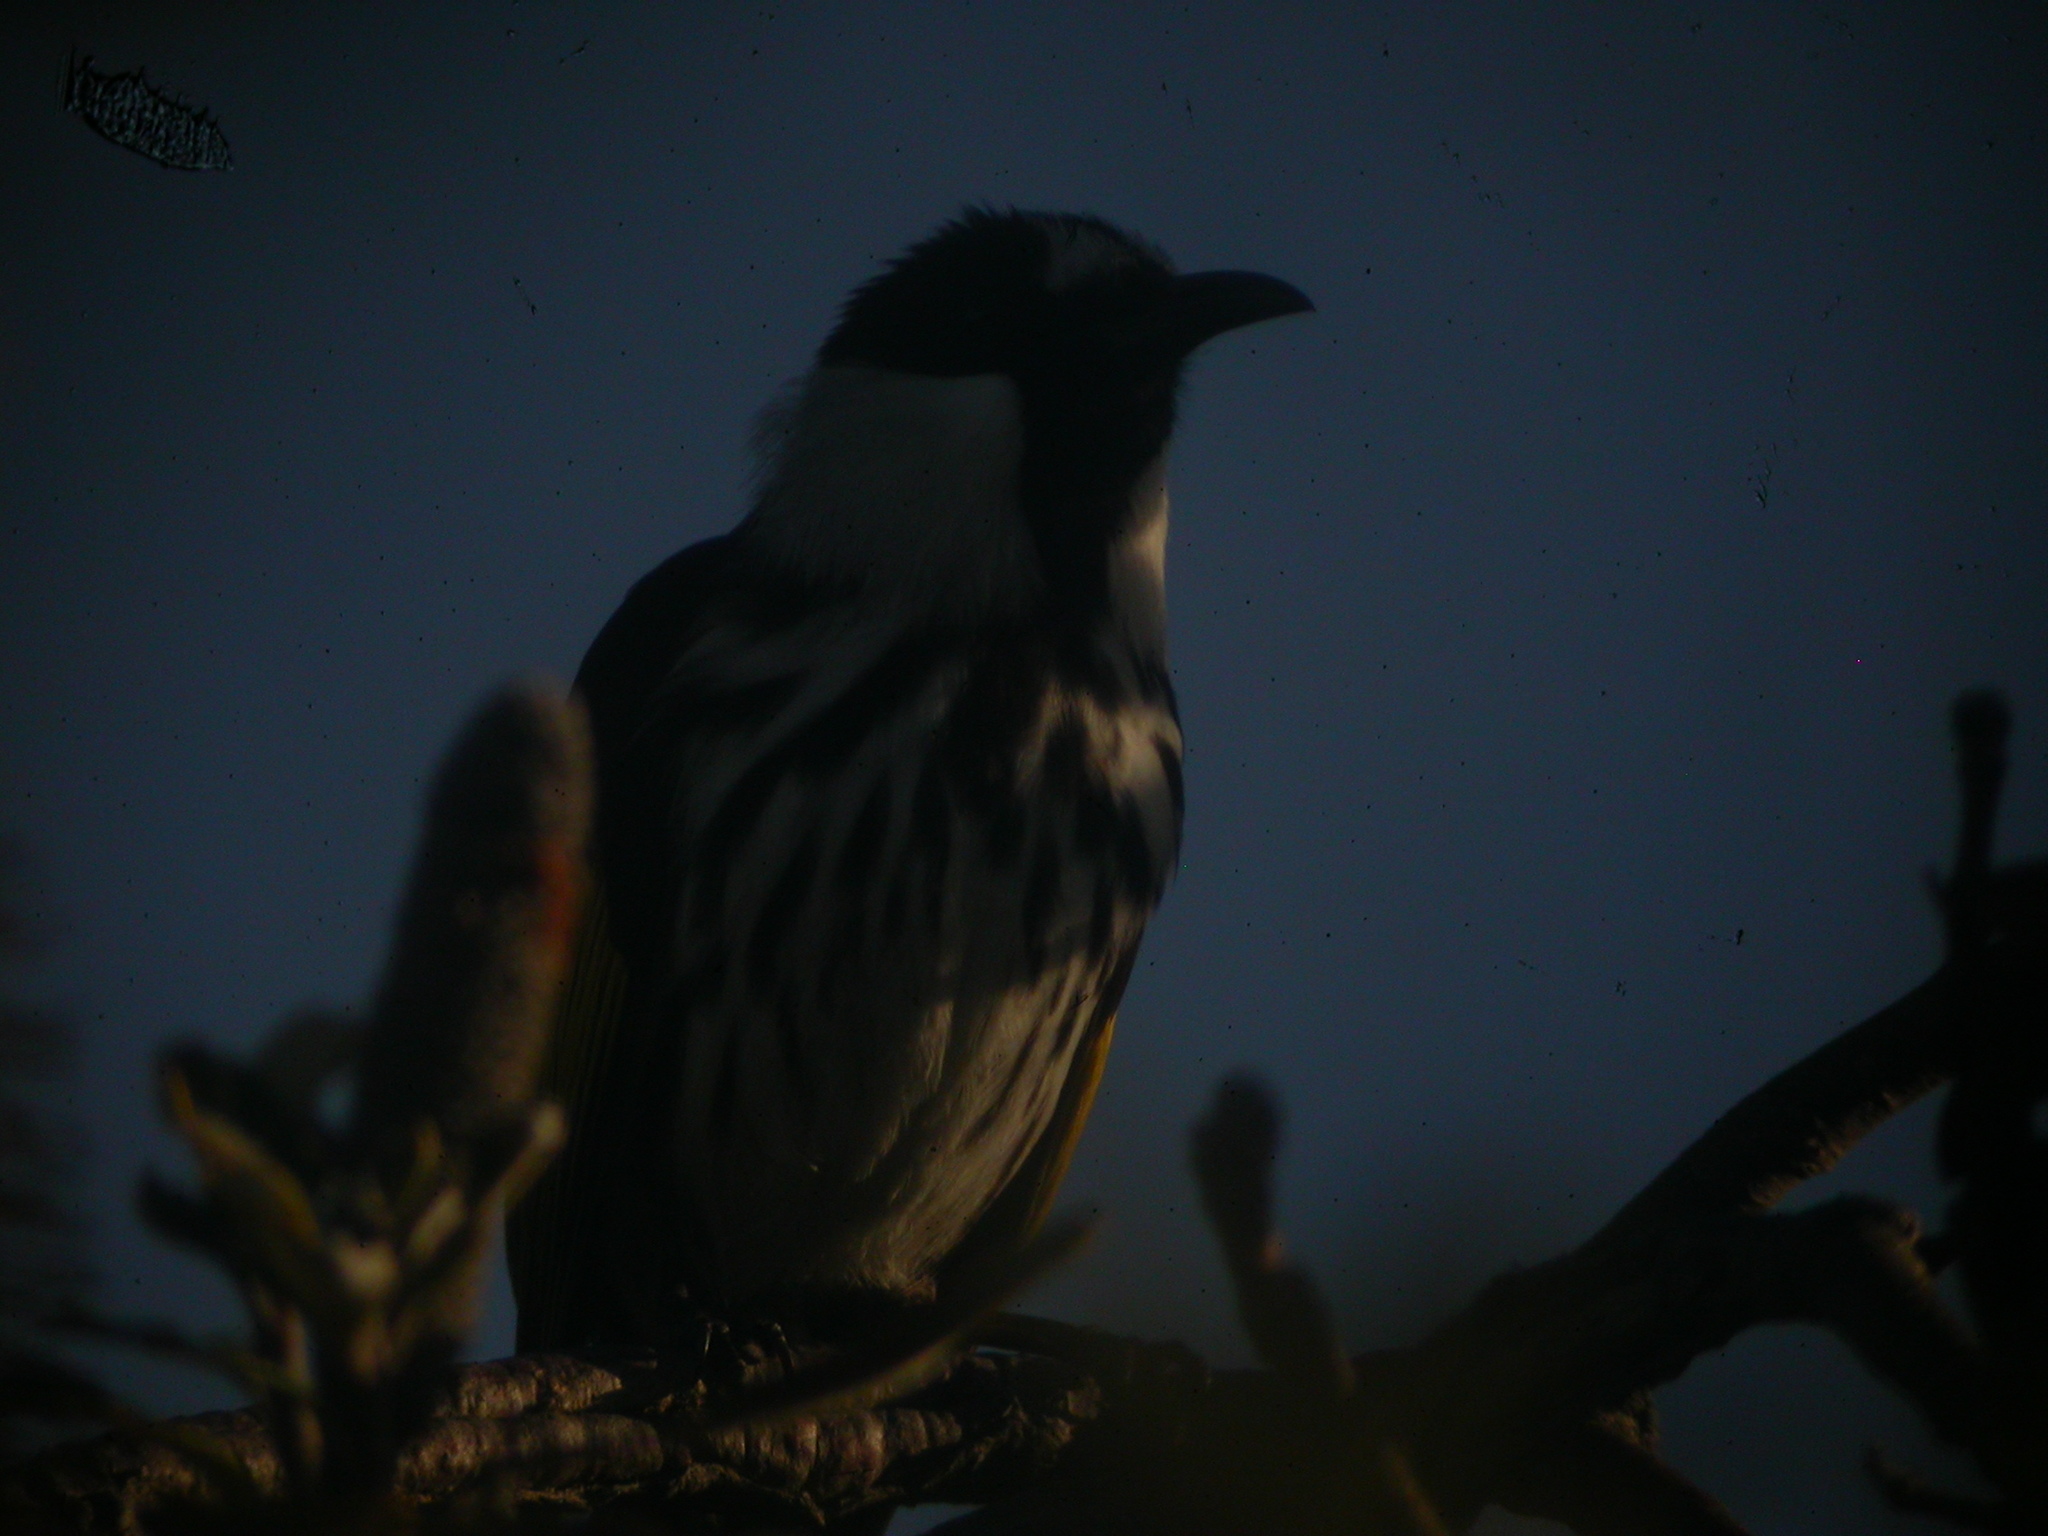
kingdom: Animalia
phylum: Chordata
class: Aves
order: Passeriformes
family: Meliphagidae
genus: Phylidonyris
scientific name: Phylidonyris niger
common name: White-cheeked honeyeater
